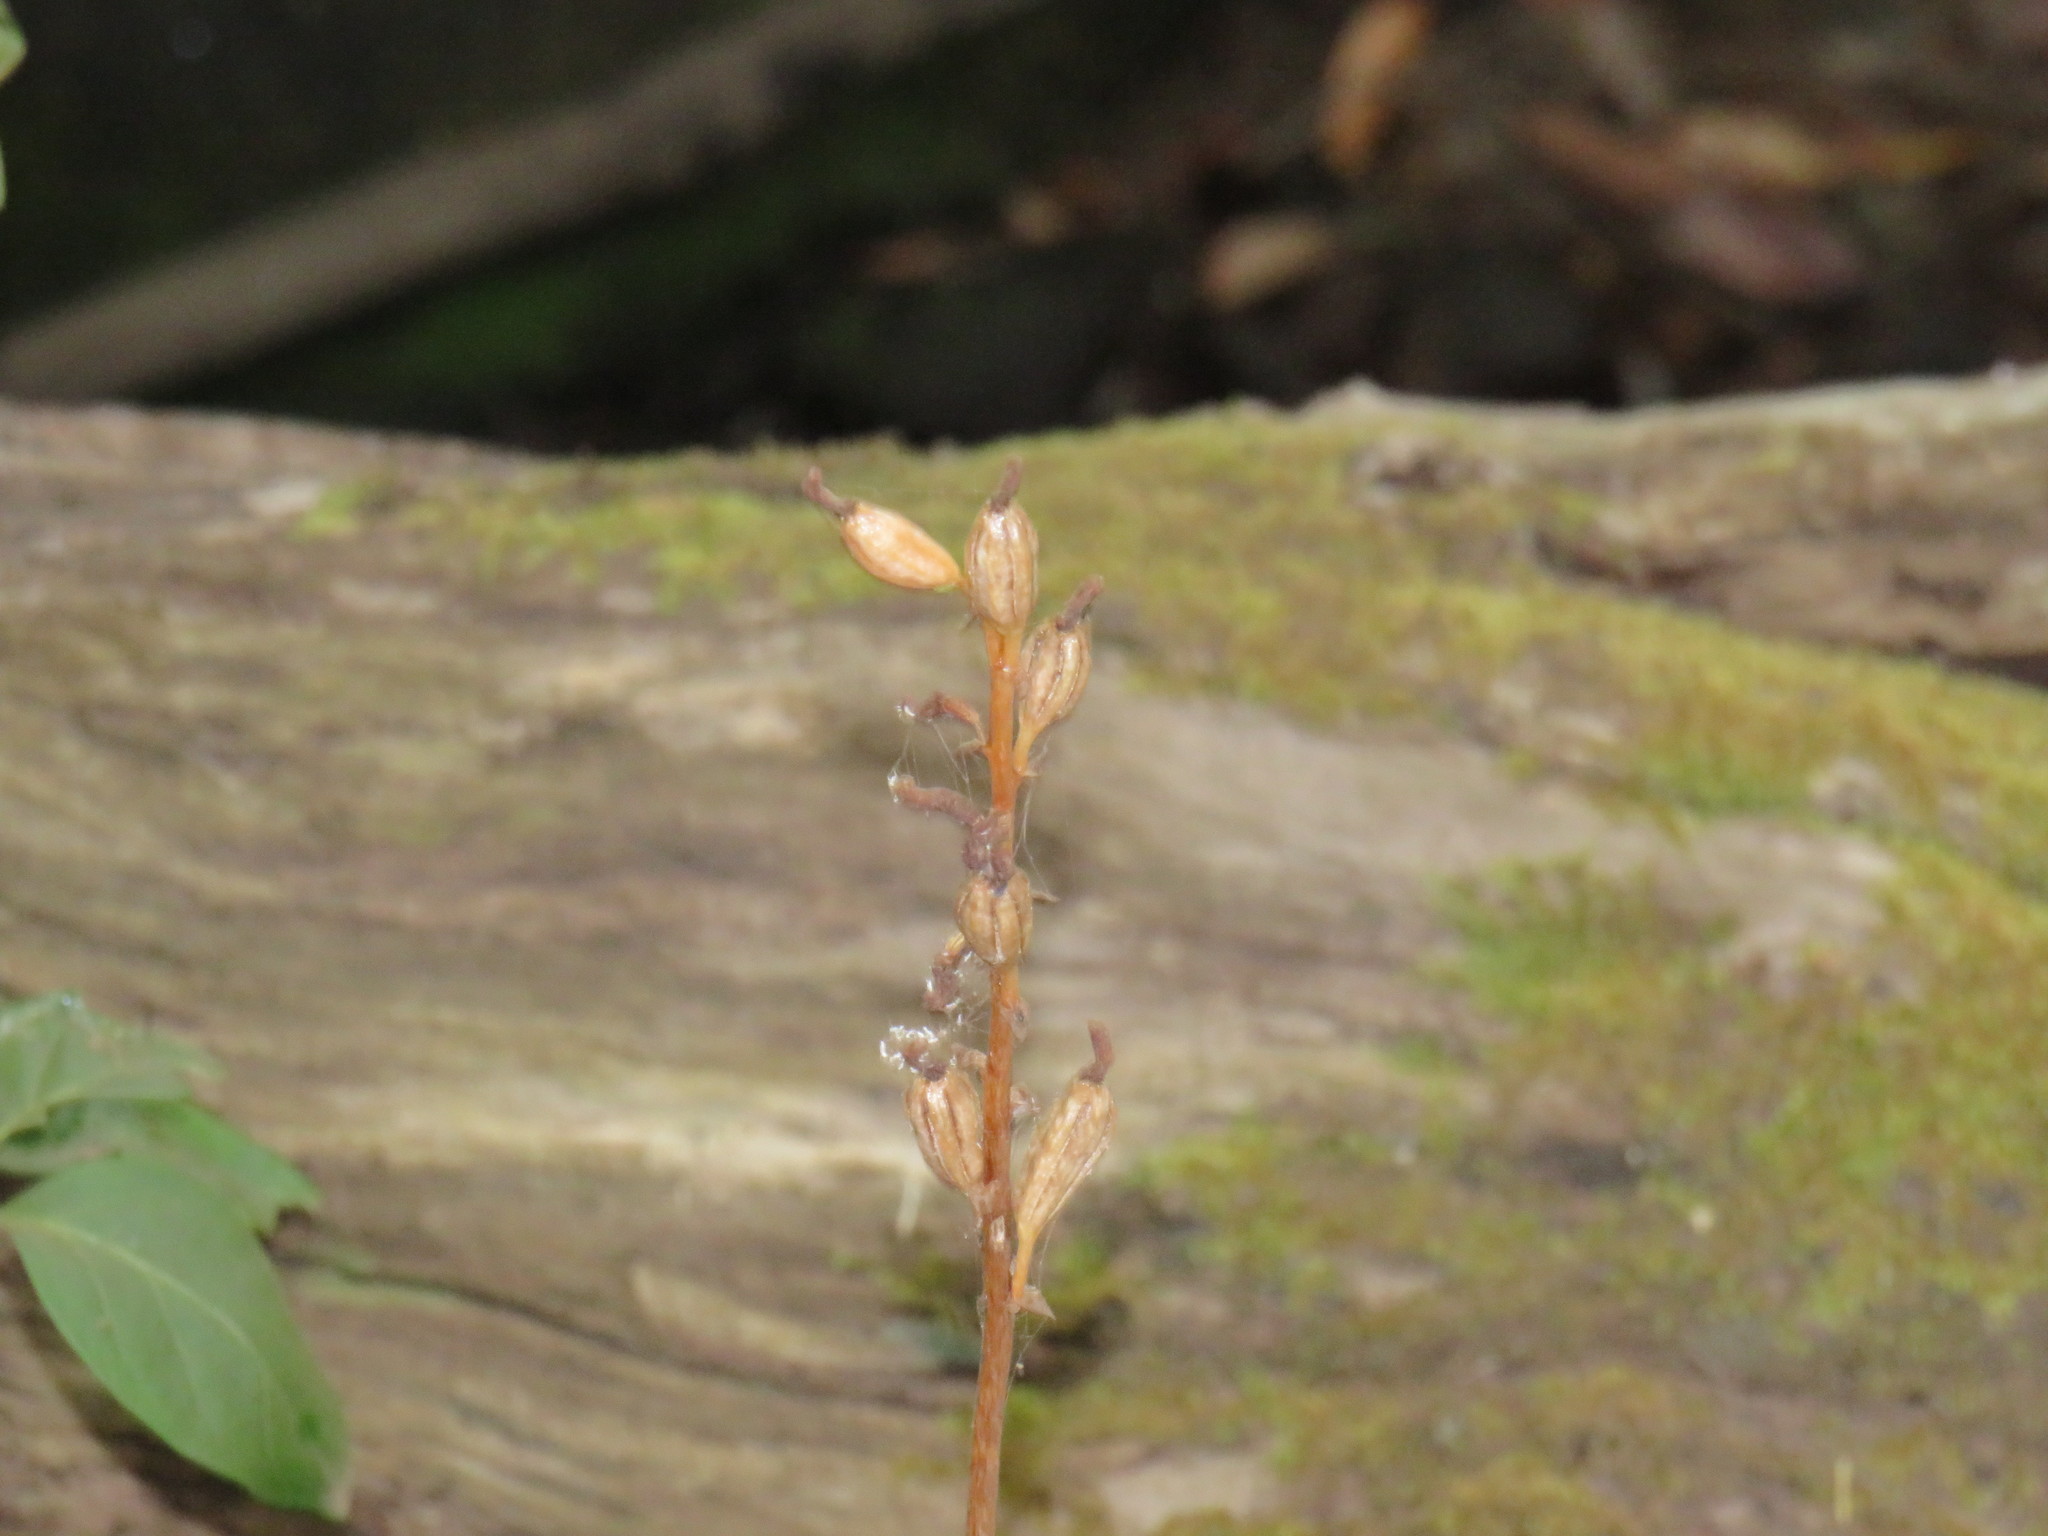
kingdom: Plantae
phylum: Tracheophyta
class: Liliopsida
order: Asparagales
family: Orchidaceae
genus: Gastrodia
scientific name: Gastrodia sesamoides
